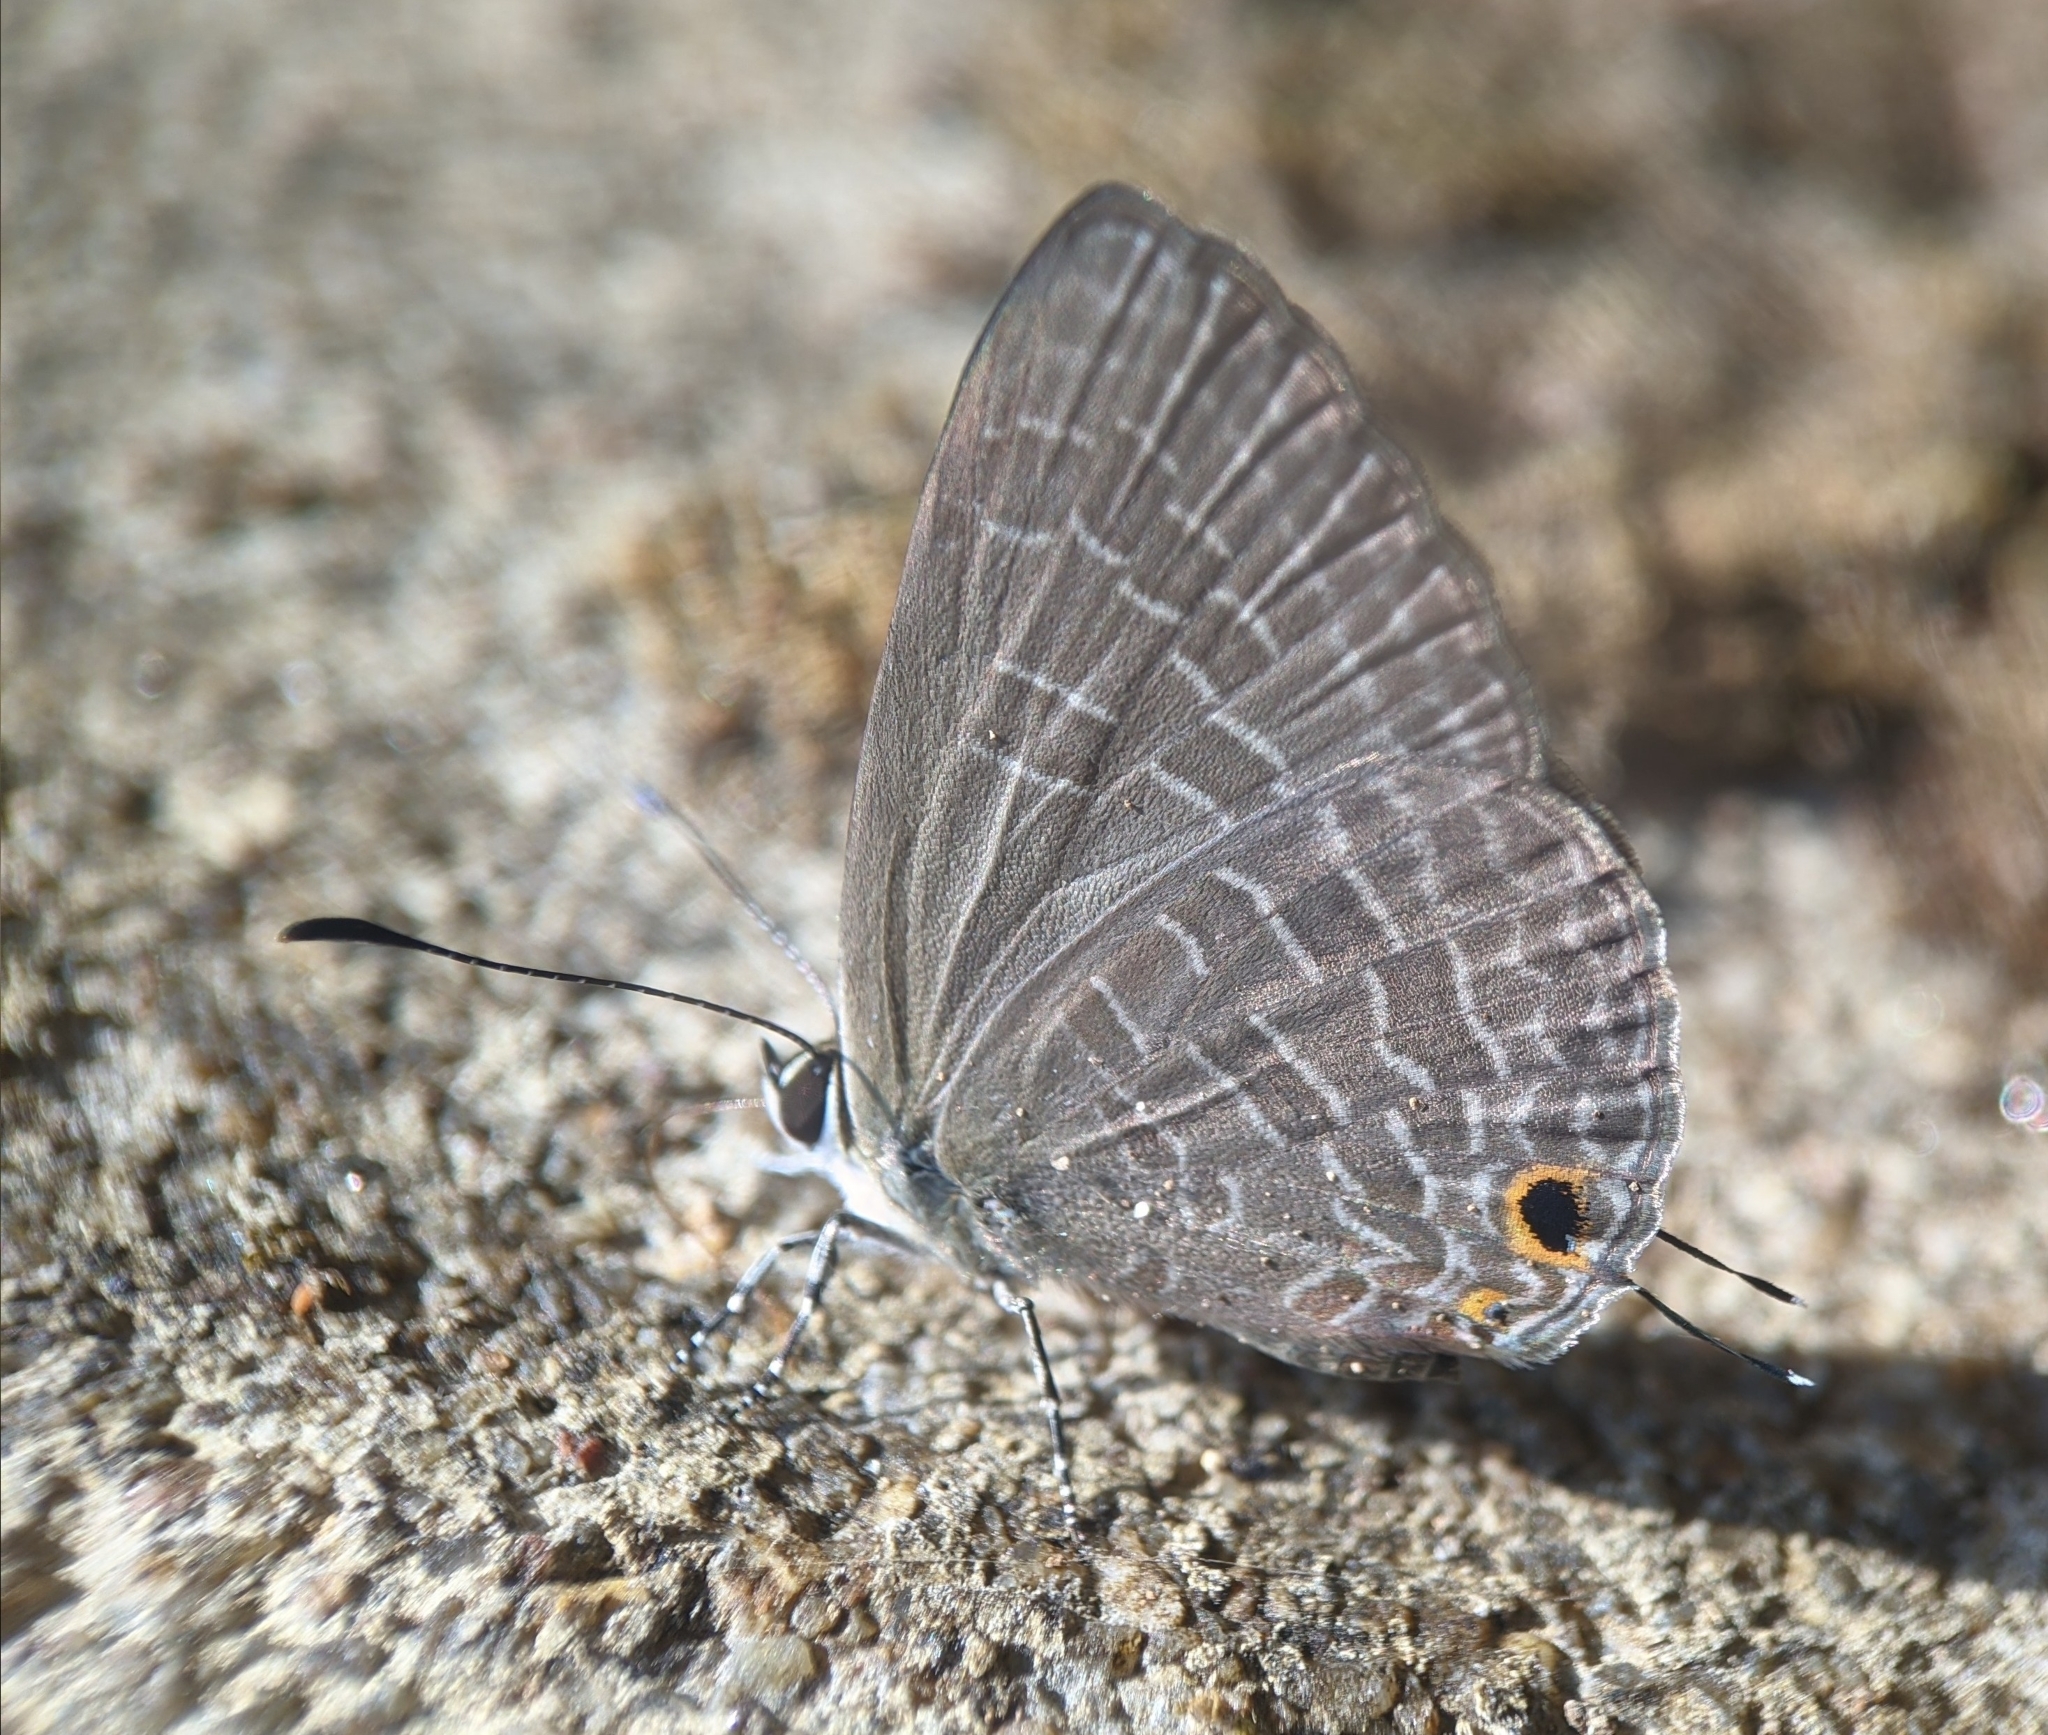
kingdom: Animalia
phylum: Arthropoda
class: Insecta
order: Lepidoptera
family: Lycaenidae
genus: Jamides
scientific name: Jamides bochus
